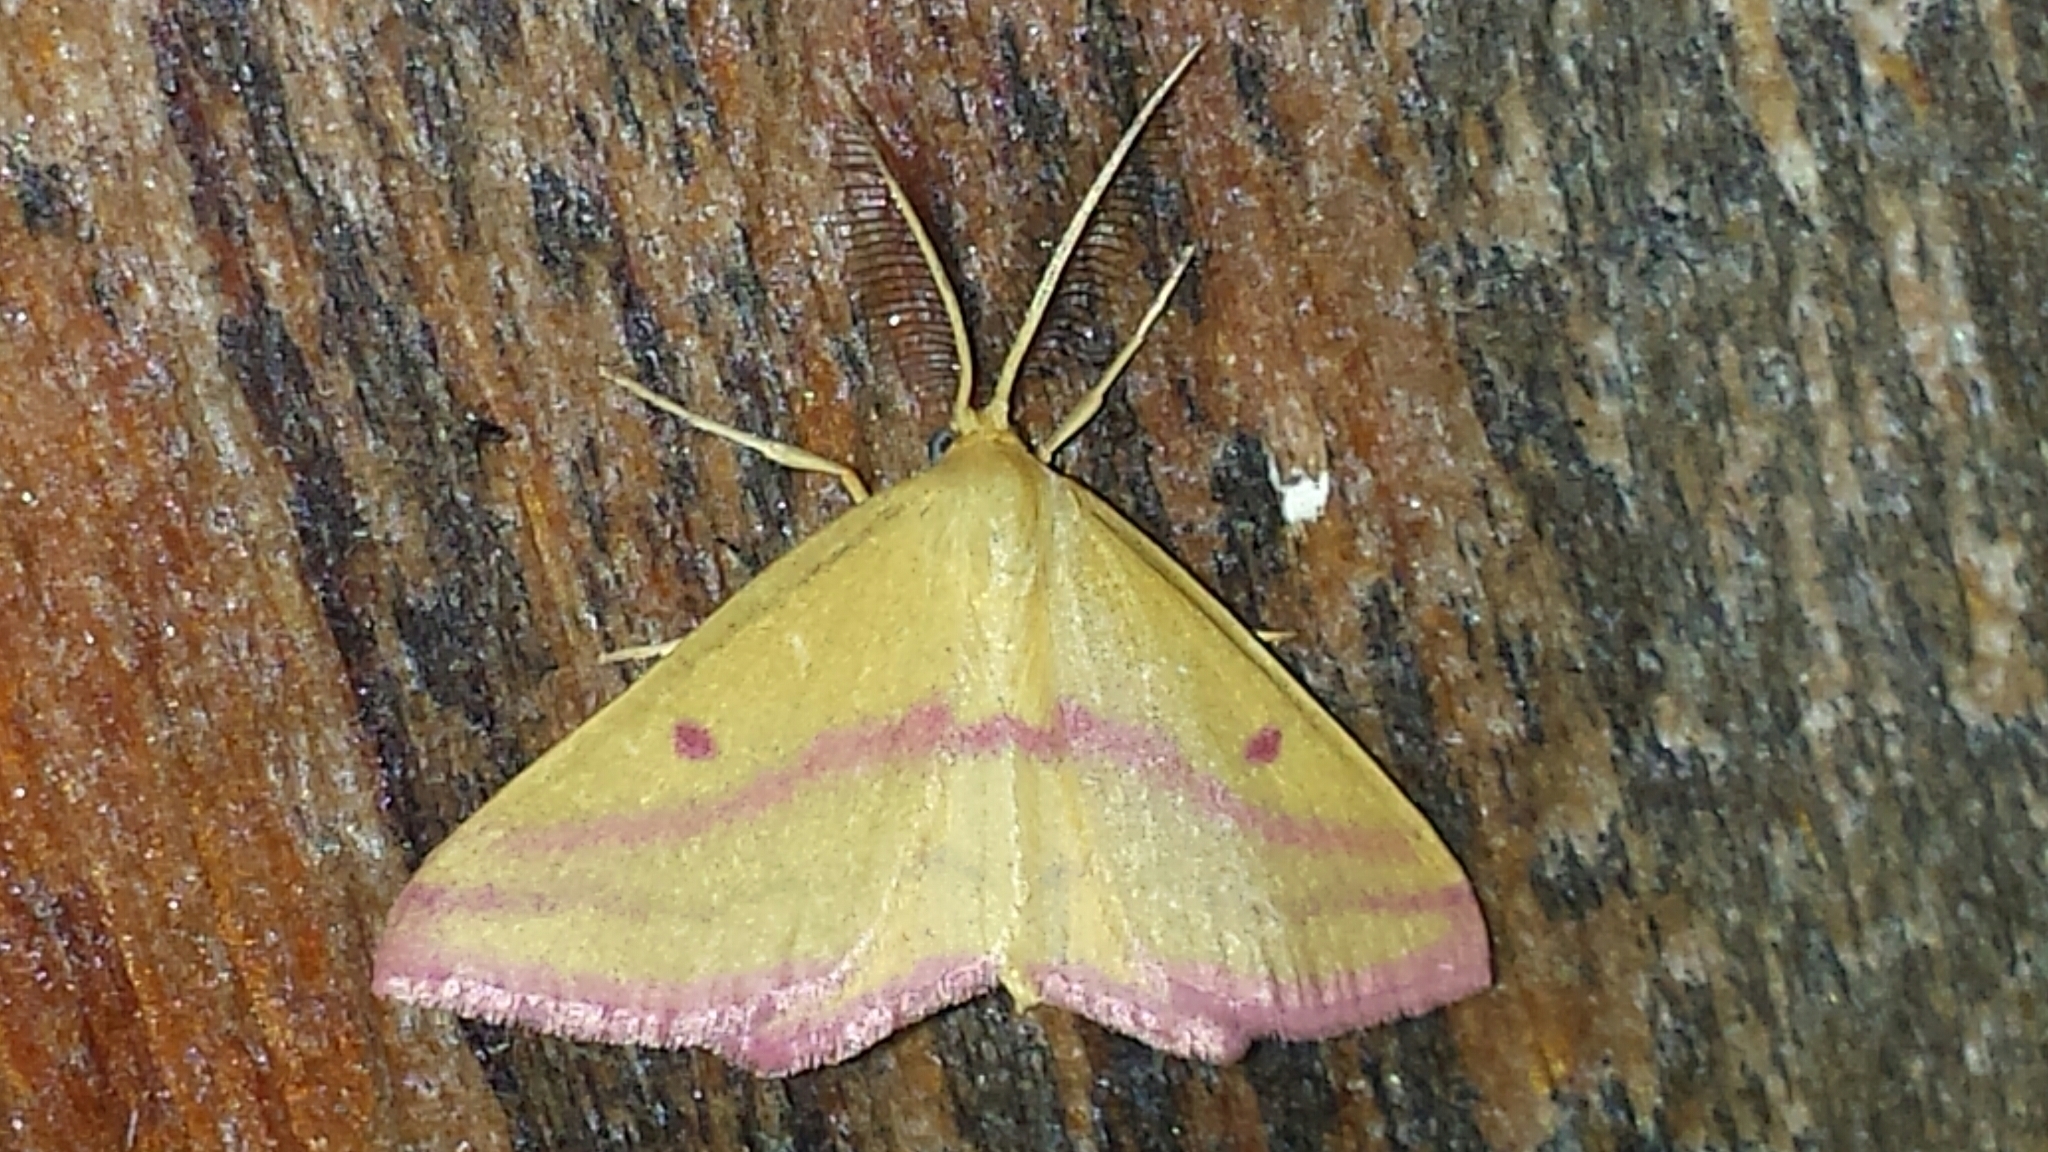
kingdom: Animalia
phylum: Arthropoda
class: Insecta
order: Lepidoptera
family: Geometridae
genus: Haematopis
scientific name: Haematopis grataria
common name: Chickweed geometer
